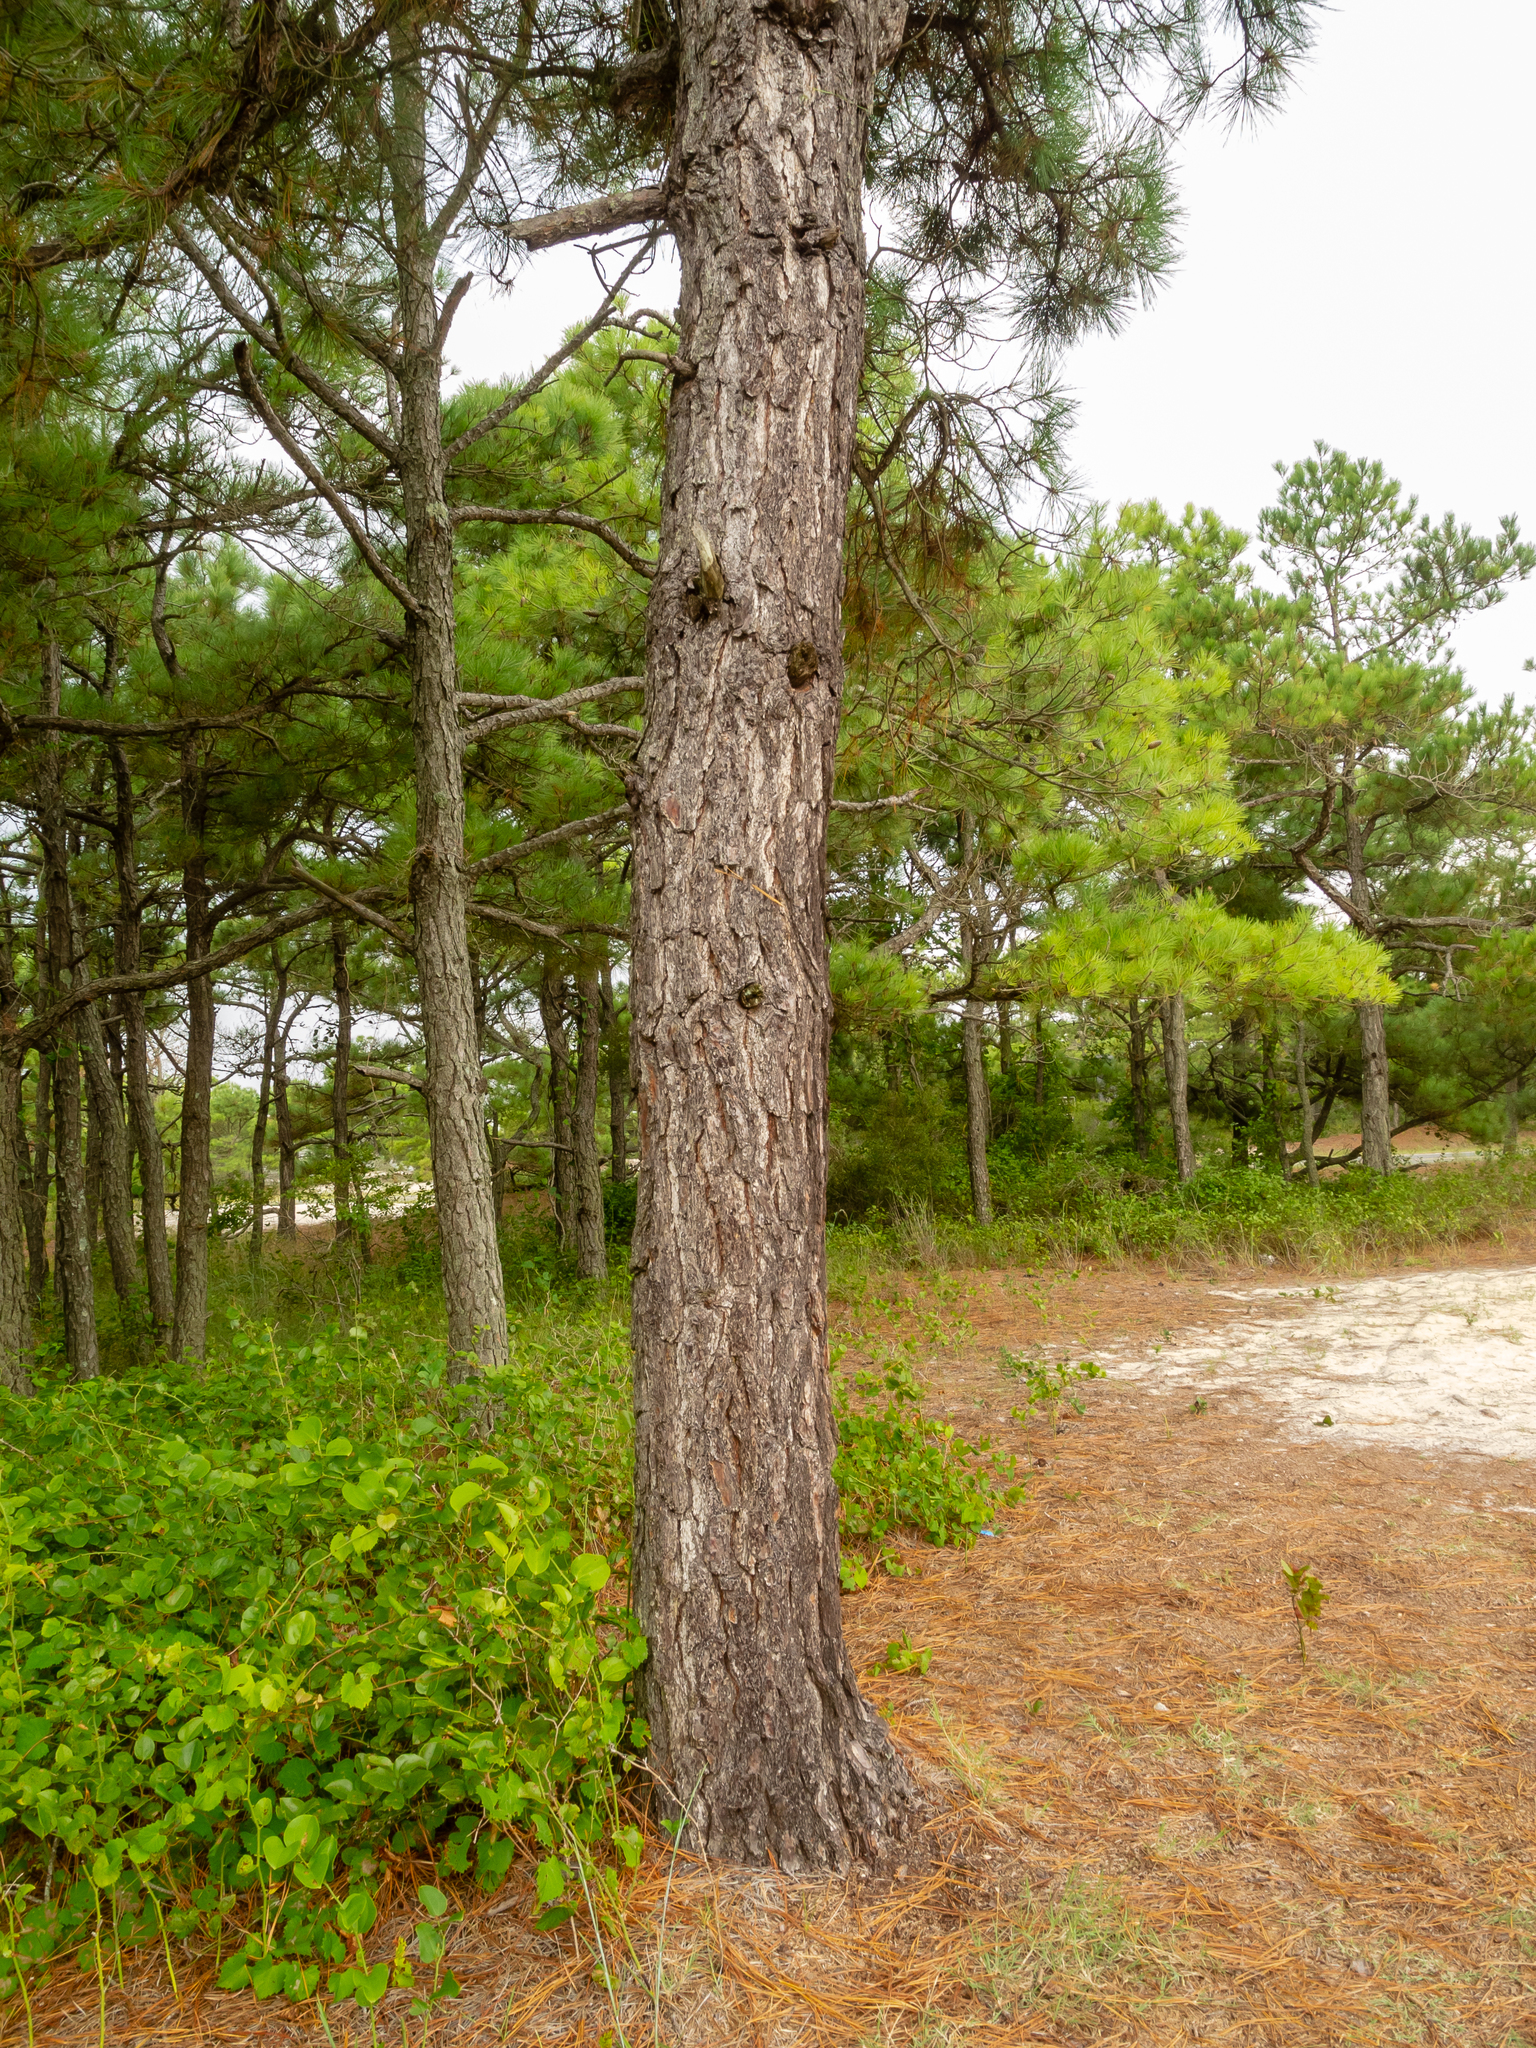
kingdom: Plantae
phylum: Tracheophyta
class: Pinopsida
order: Pinales
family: Pinaceae
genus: Pinus
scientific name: Pinus rigida
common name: Pitch pine
